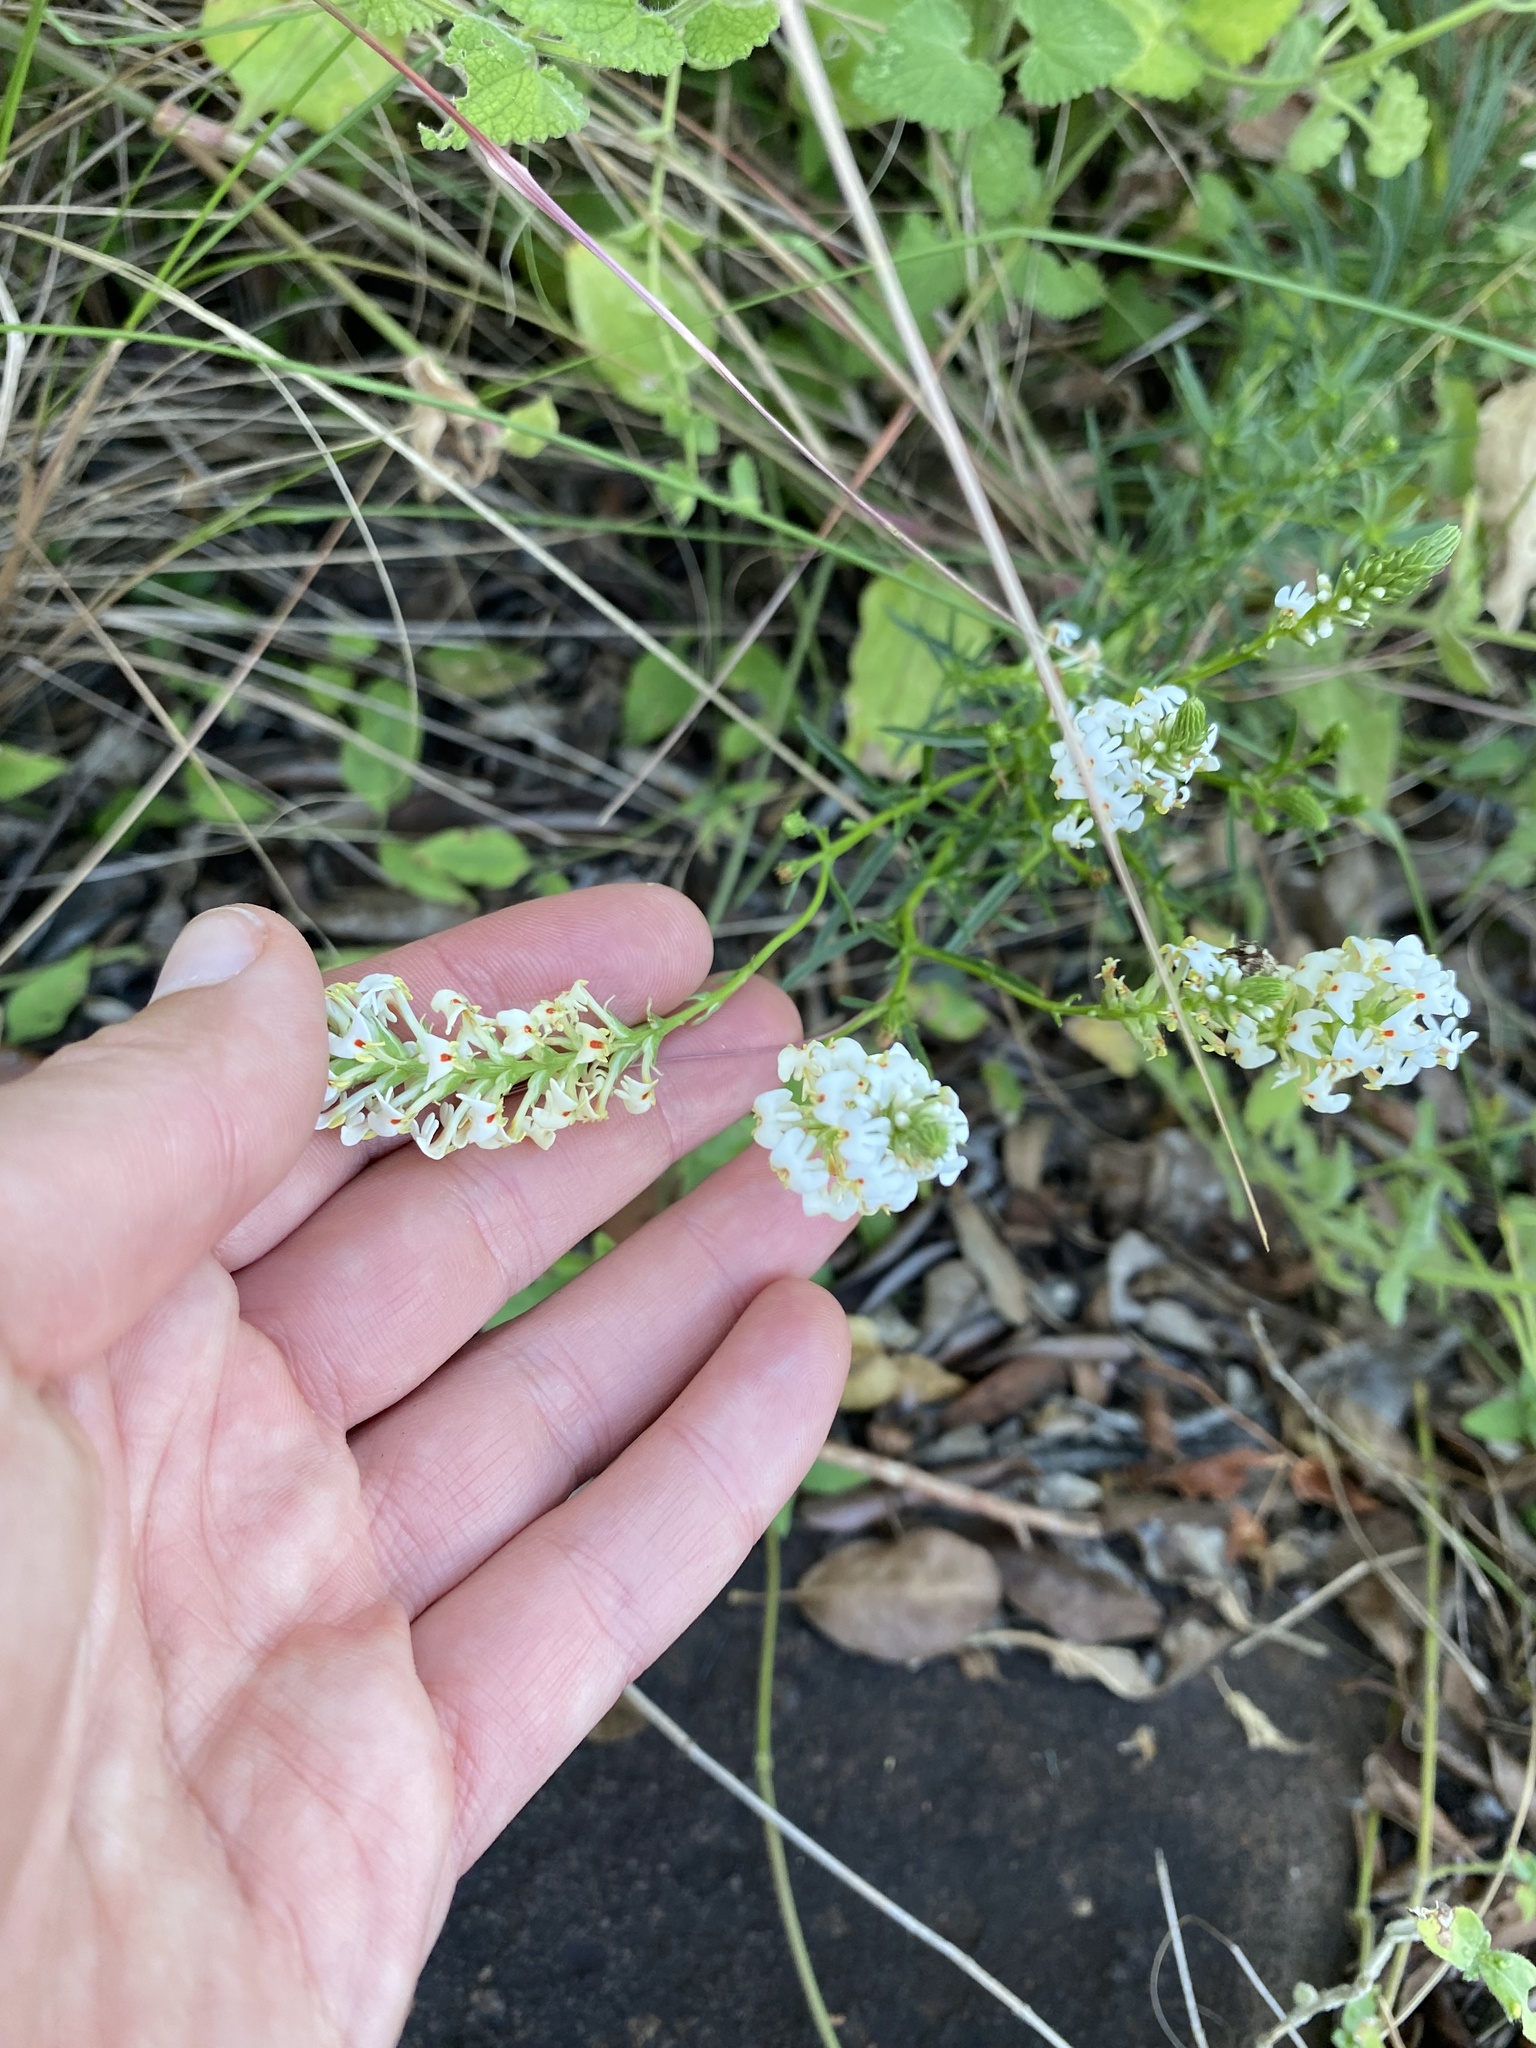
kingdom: Plantae
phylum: Tracheophyta
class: Magnoliopsida
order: Lamiales
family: Scrophulariaceae
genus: Hebenstretia
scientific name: Hebenstretia dura
